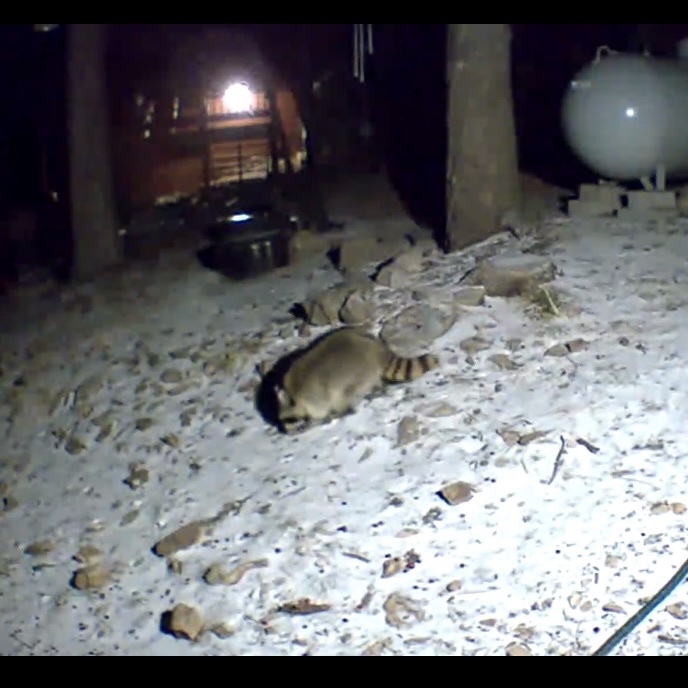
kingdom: Animalia
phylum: Chordata
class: Mammalia
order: Carnivora
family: Procyonidae
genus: Procyon
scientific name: Procyon lotor
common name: Raccoon
